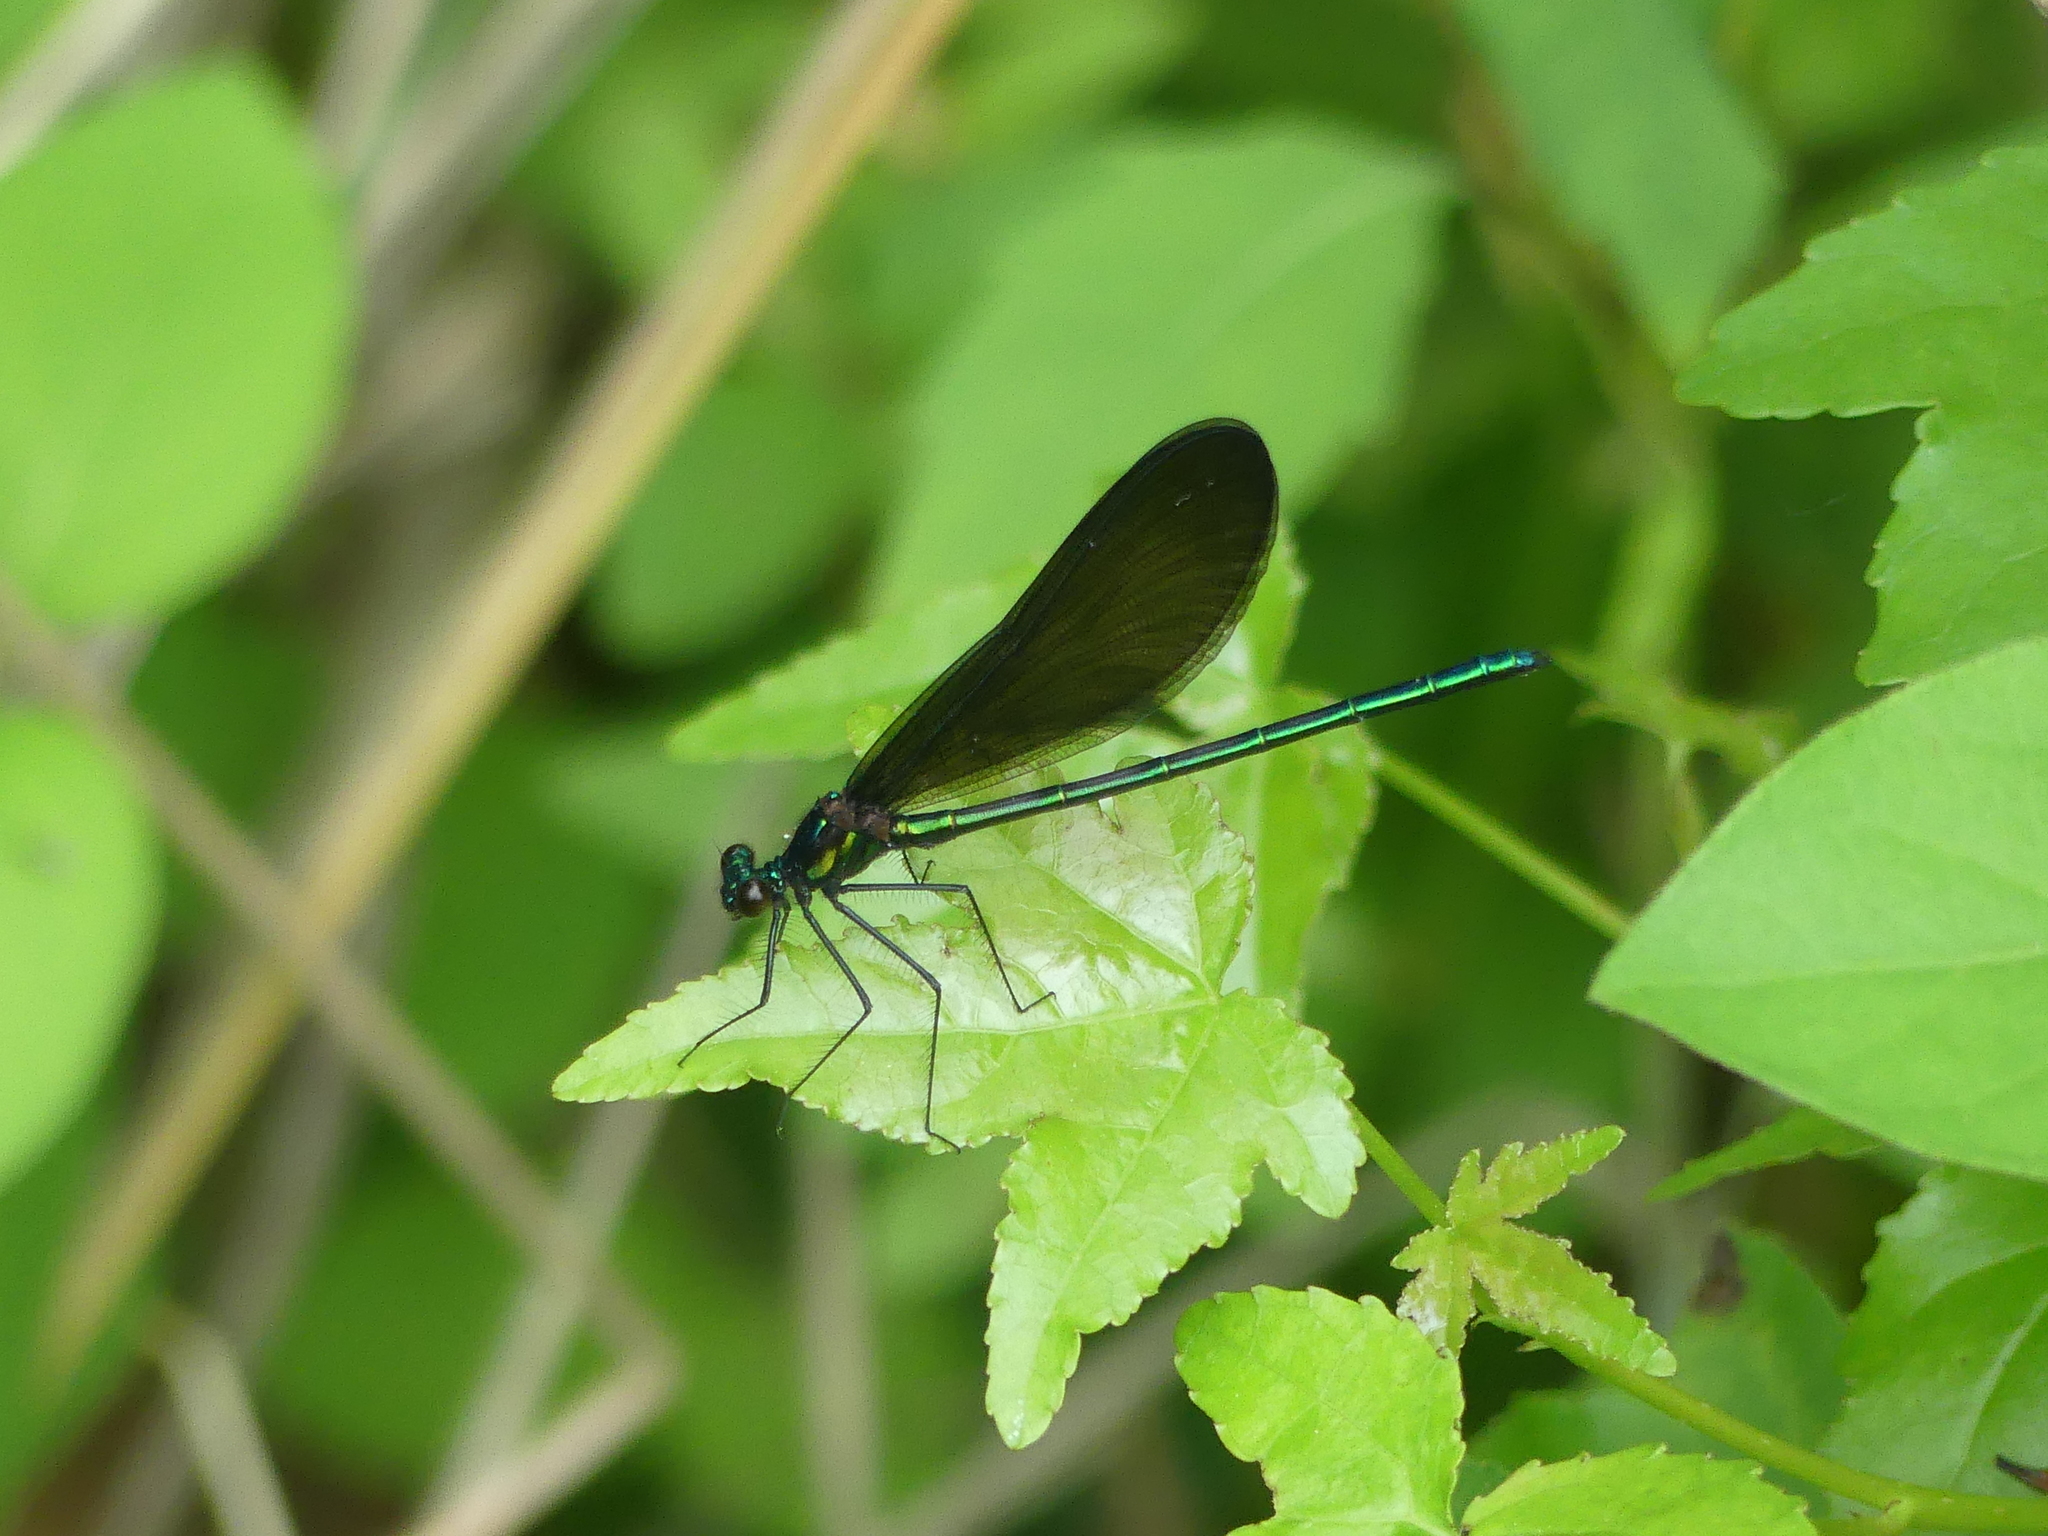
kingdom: Animalia
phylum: Arthropoda
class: Insecta
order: Odonata
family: Calopterygidae
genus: Calopteryx
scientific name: Calopteryx maculata
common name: Ebony jewelwing
